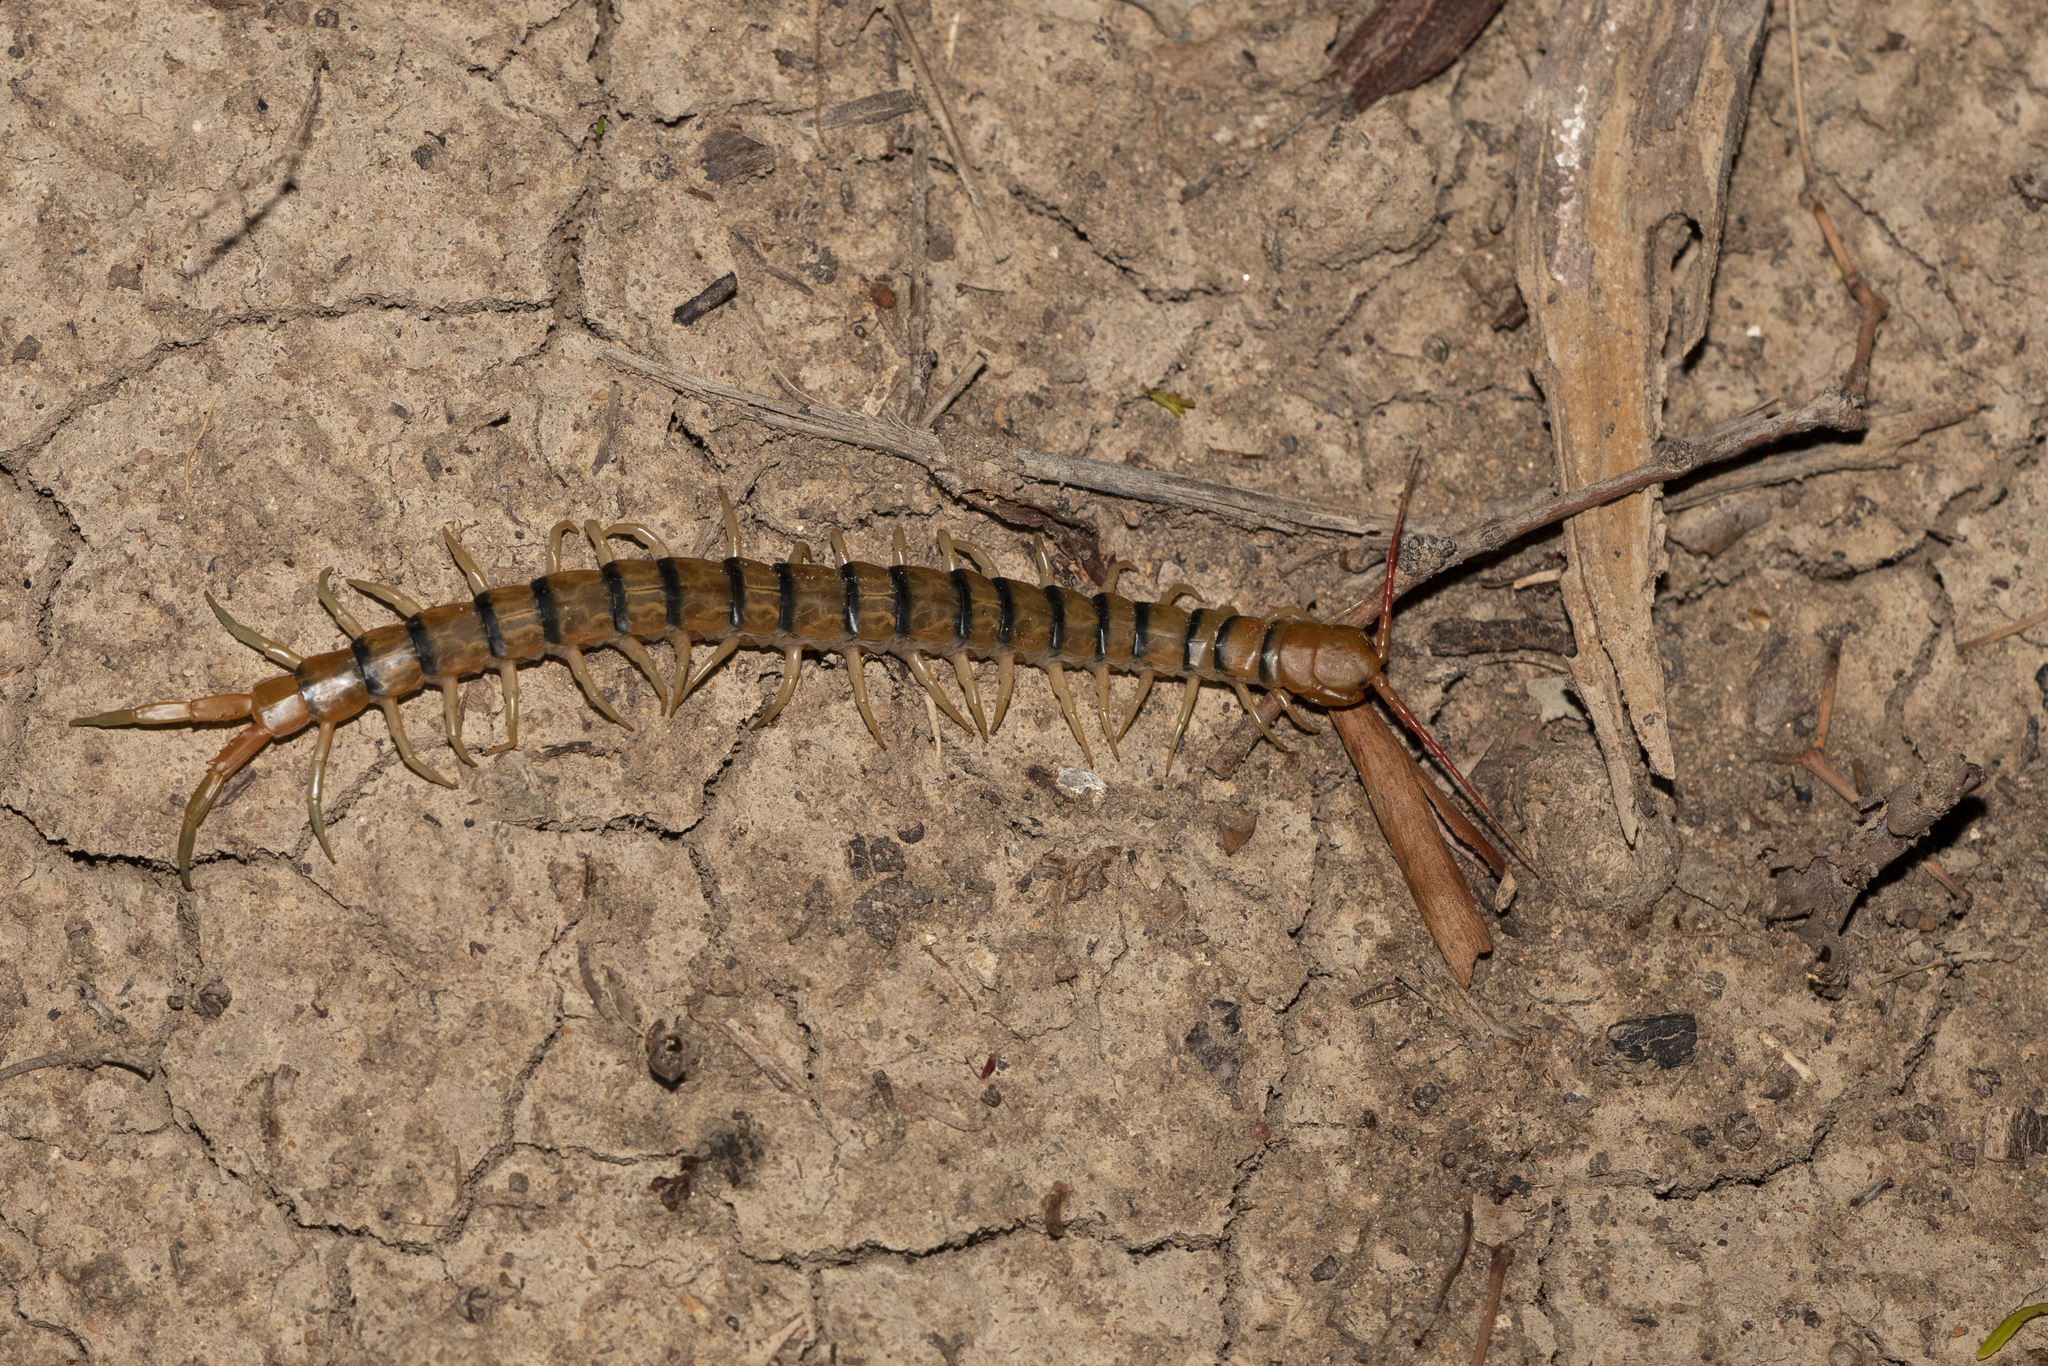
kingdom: Animalia
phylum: Arthropoda
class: Chilopoda
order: Scolopendromorpha
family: Scolopendridae
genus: Scolopendra
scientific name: Scolopendra morsitans
